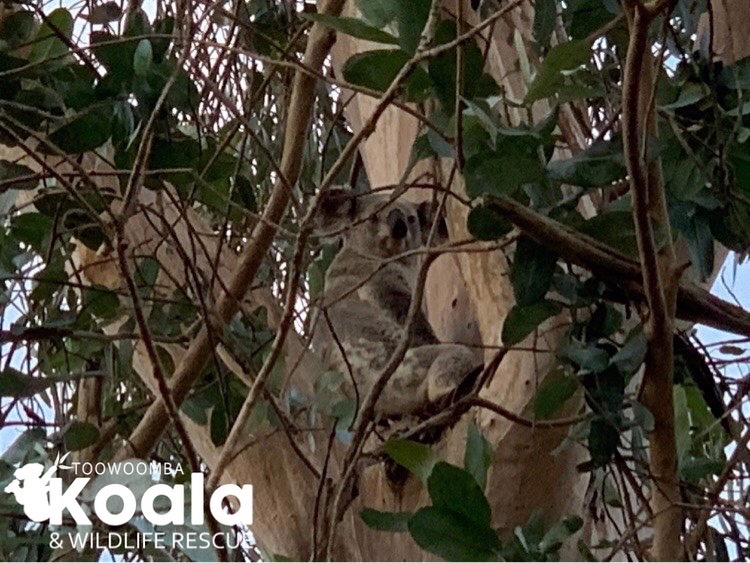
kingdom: Animalia
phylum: Chordata
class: Mammalia
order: Diprotodontia
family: Phascolarctidae
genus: Phascolarctos
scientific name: Phascolarctos cinereus
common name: Koala
